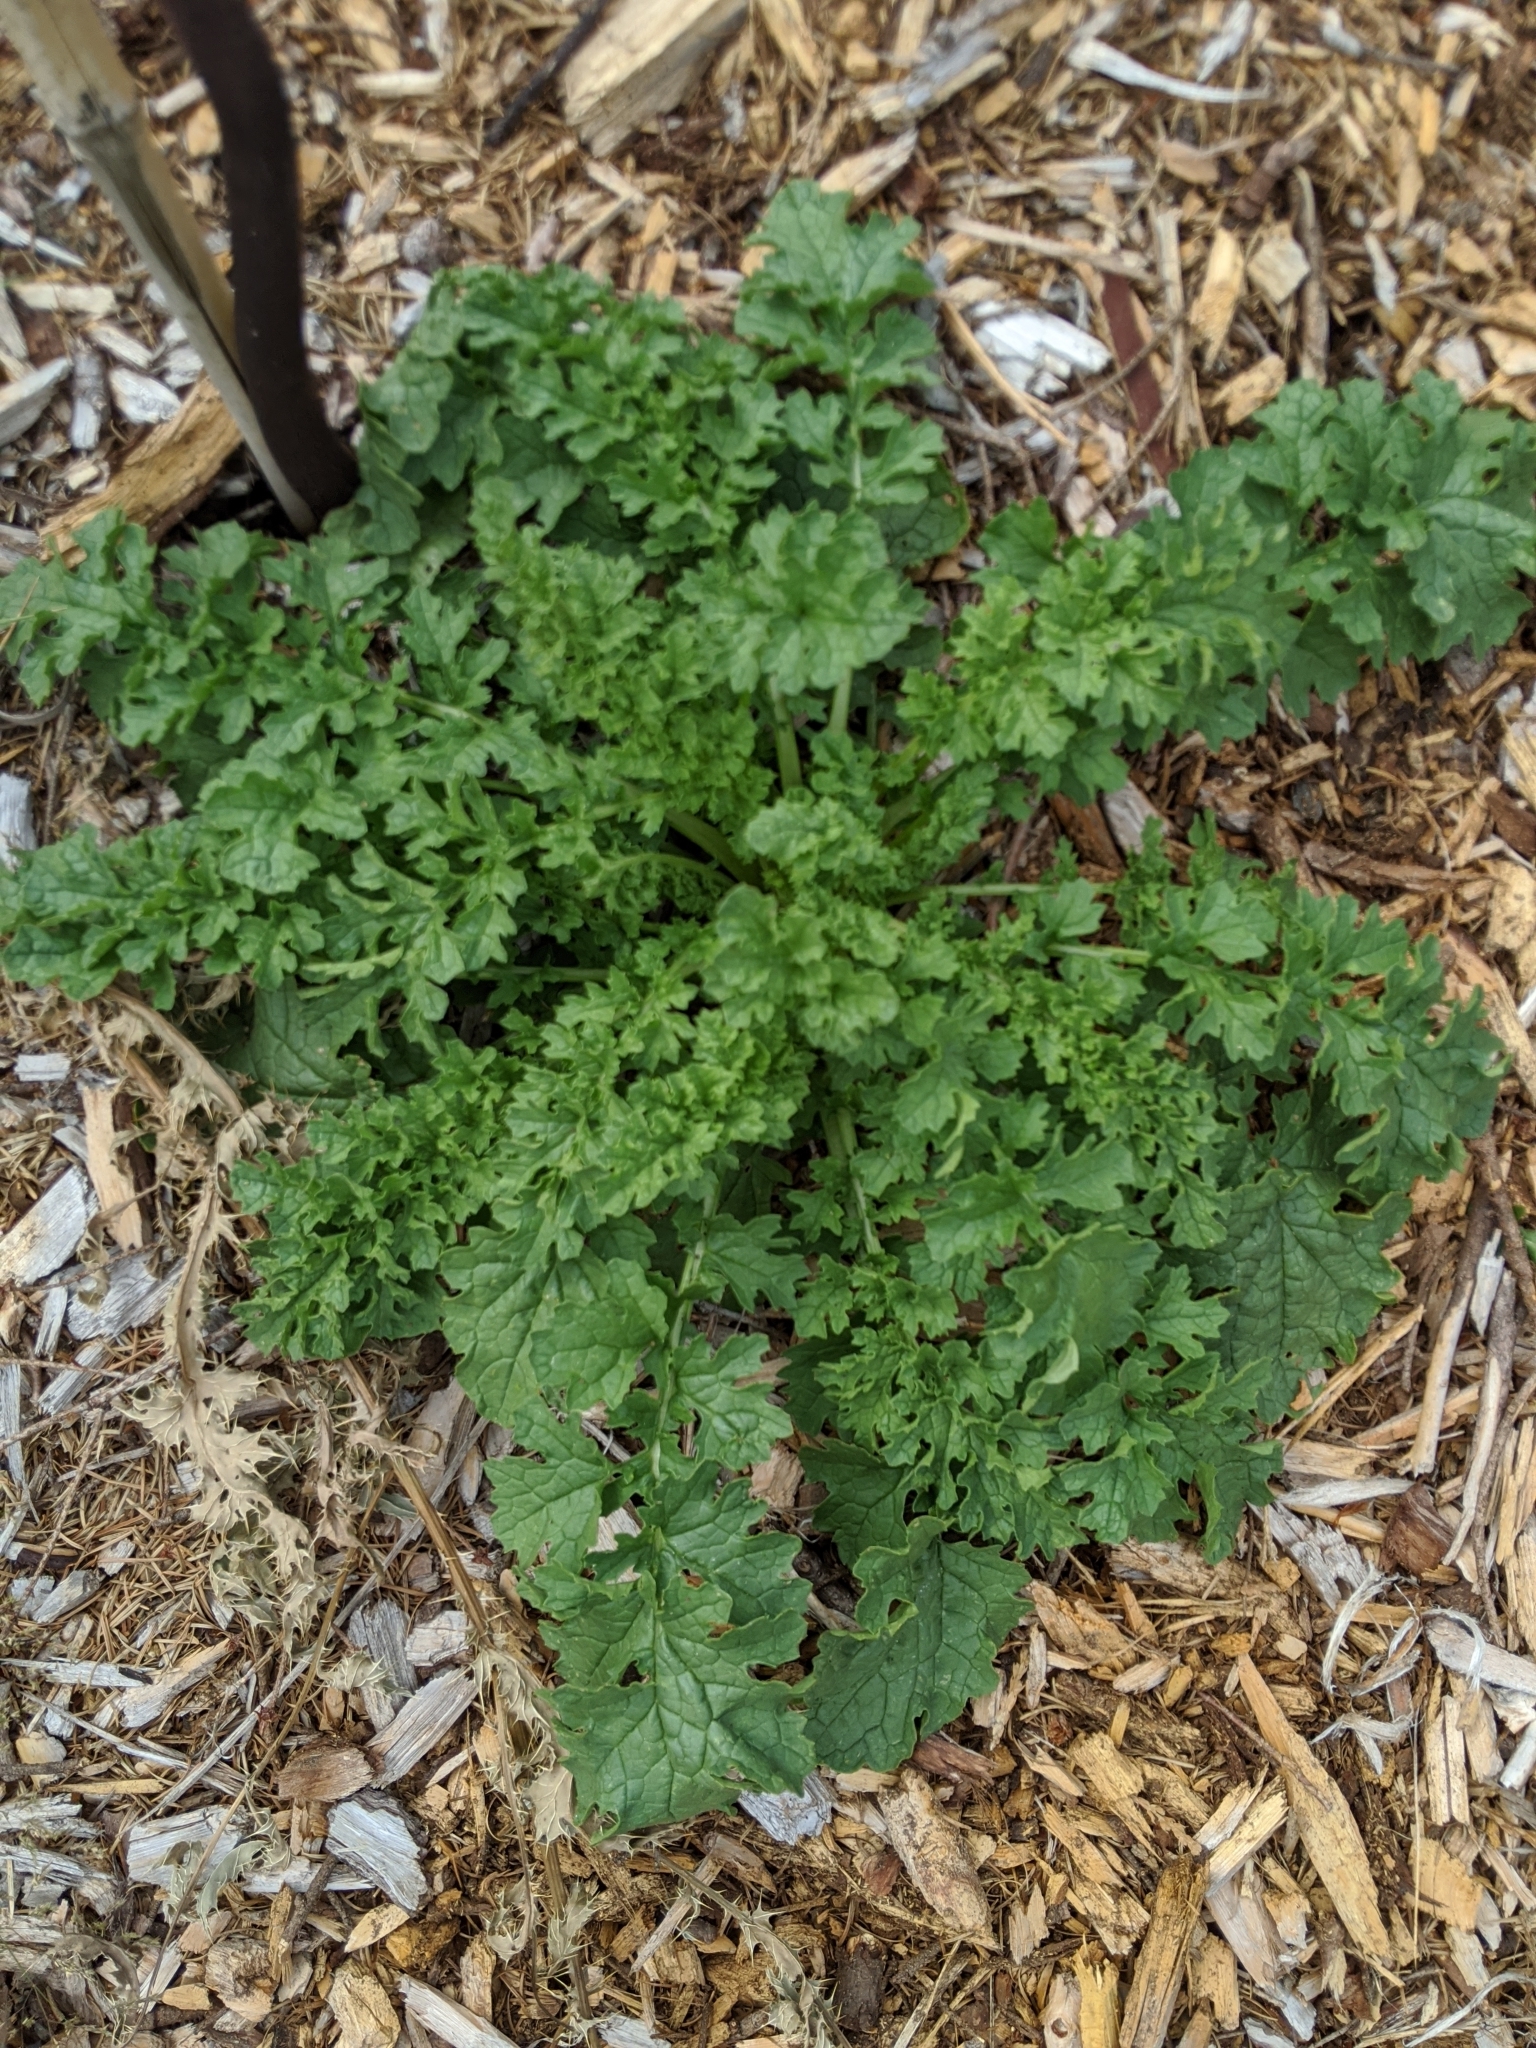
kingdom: Plantae
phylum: Tracheophyta
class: Magnoliopsida
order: Asterales
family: Asteraceae
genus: Jacobaea
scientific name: Jacobaea vulgaris
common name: Stinking willie
